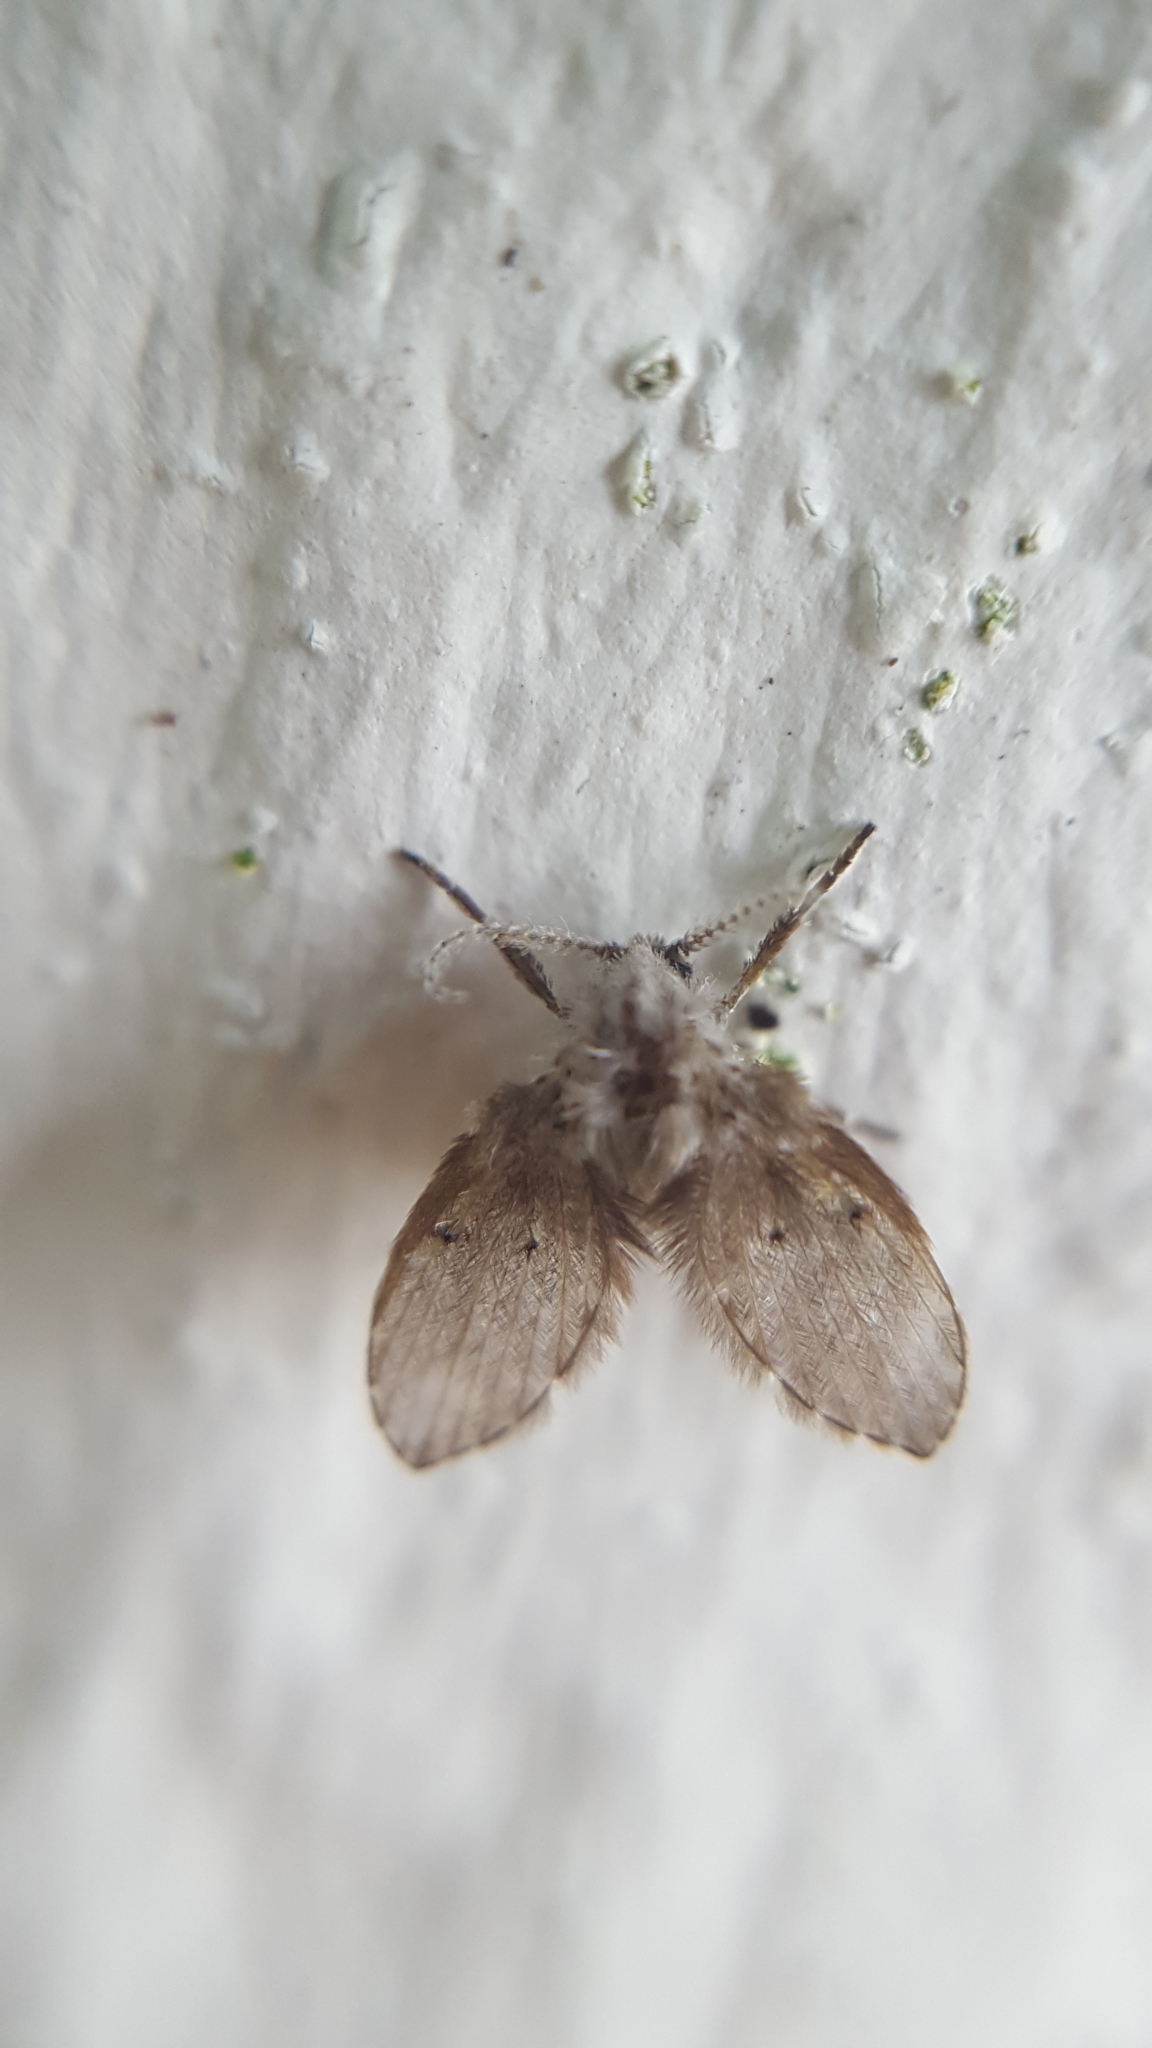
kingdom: Animalia
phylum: Arthropoda
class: Insecta
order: Diptera
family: Psychodidae
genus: Clogmia
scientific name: Clogmia albipunctatus
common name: White-spotted moth fly
